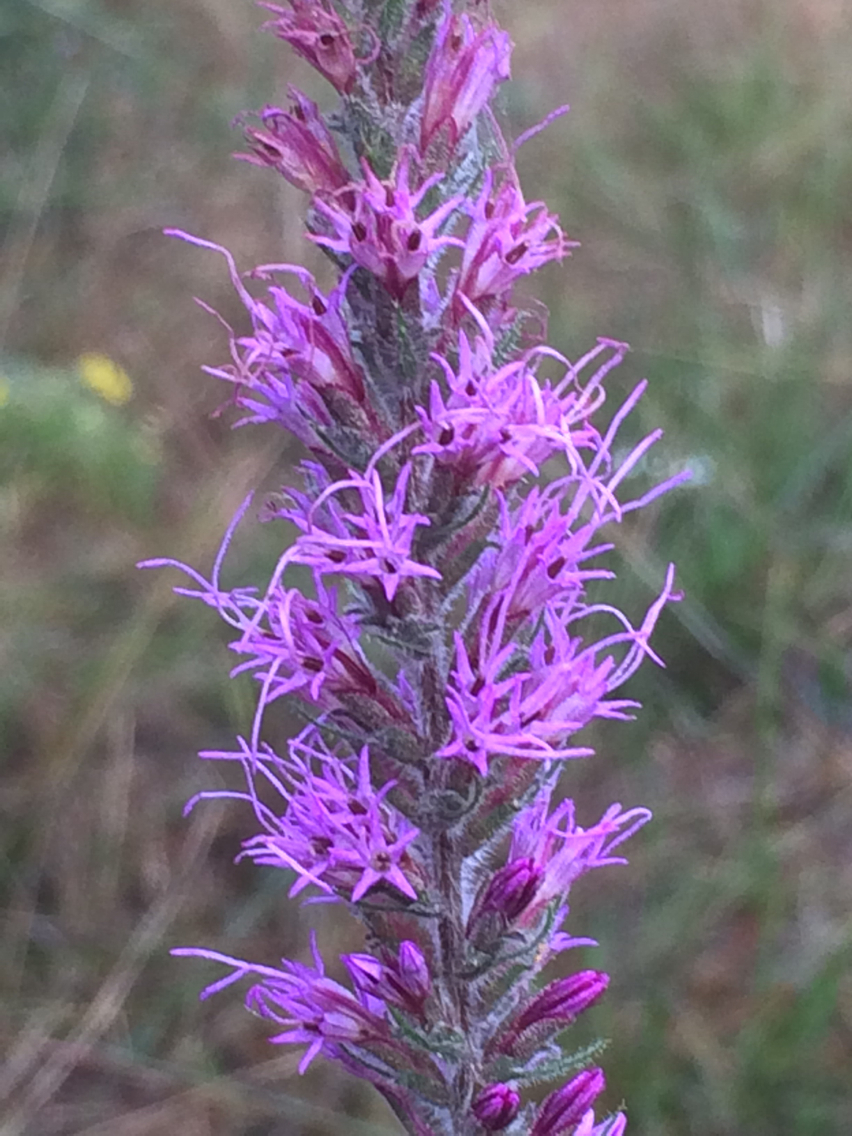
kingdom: Plantae
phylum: Tracheophyta
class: Magnoliopsida
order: Asterales
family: Asteraceae
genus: Liatris
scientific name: Liatris pycnostachya
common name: Cattail gayfeather
